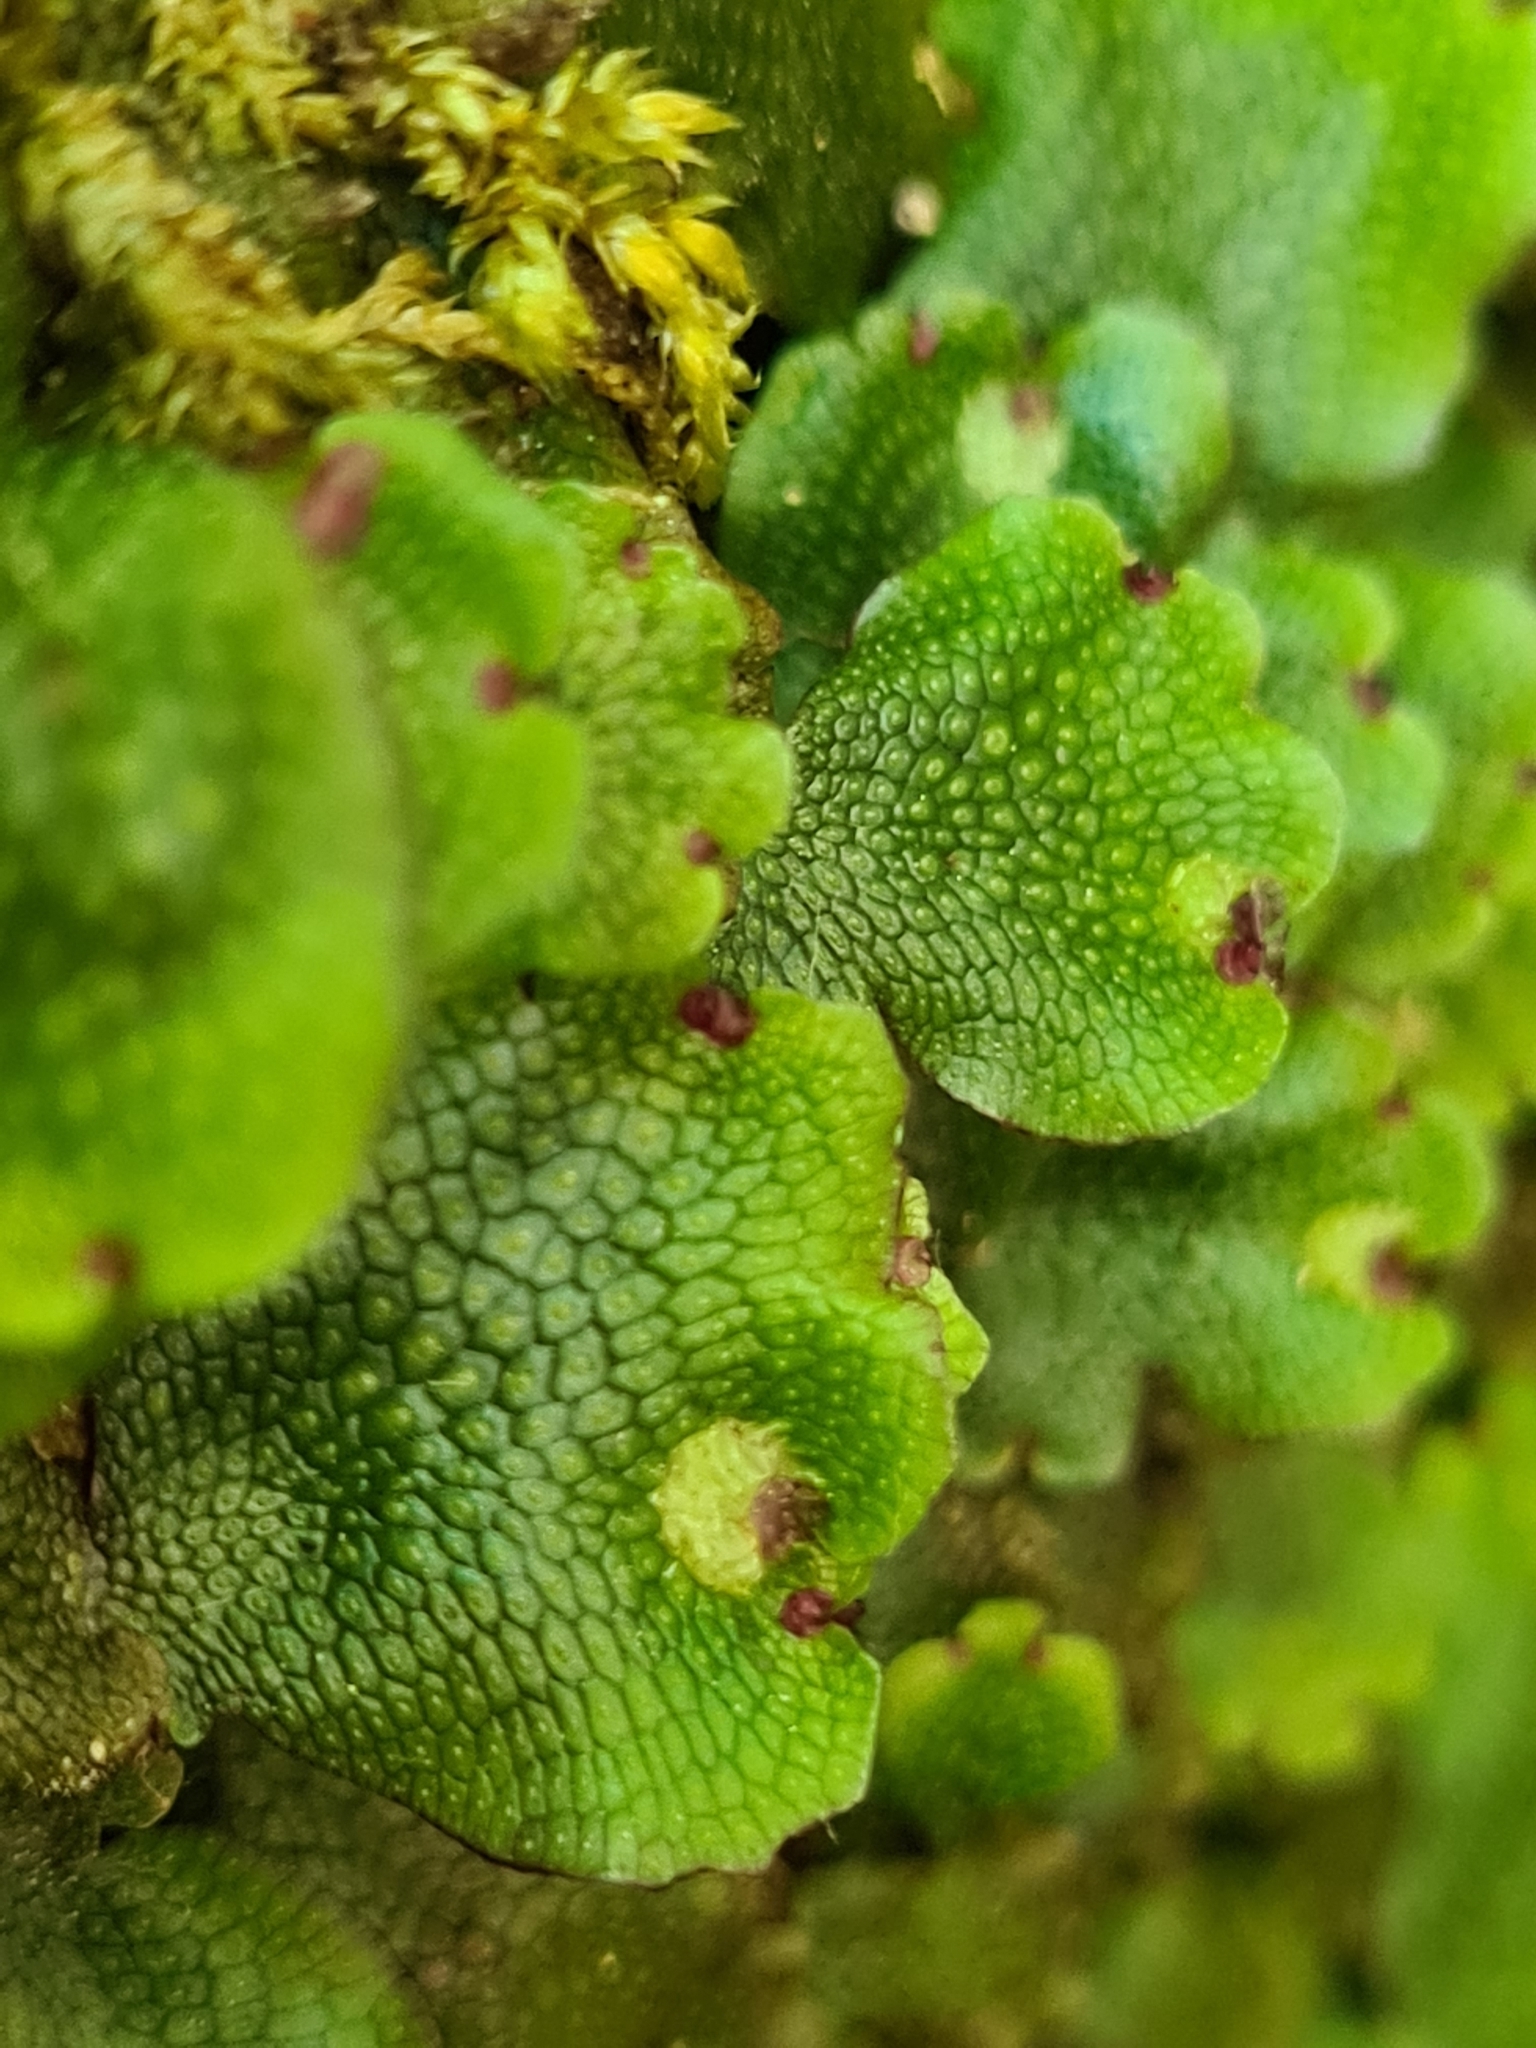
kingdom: Plantae
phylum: Marchantiophyta
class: Marchantiopsida
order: Marchantiales
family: Conocephalaceae
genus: Conocephalum
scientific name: Conocephalum salebrosum
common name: Cat-tongue liverwort
